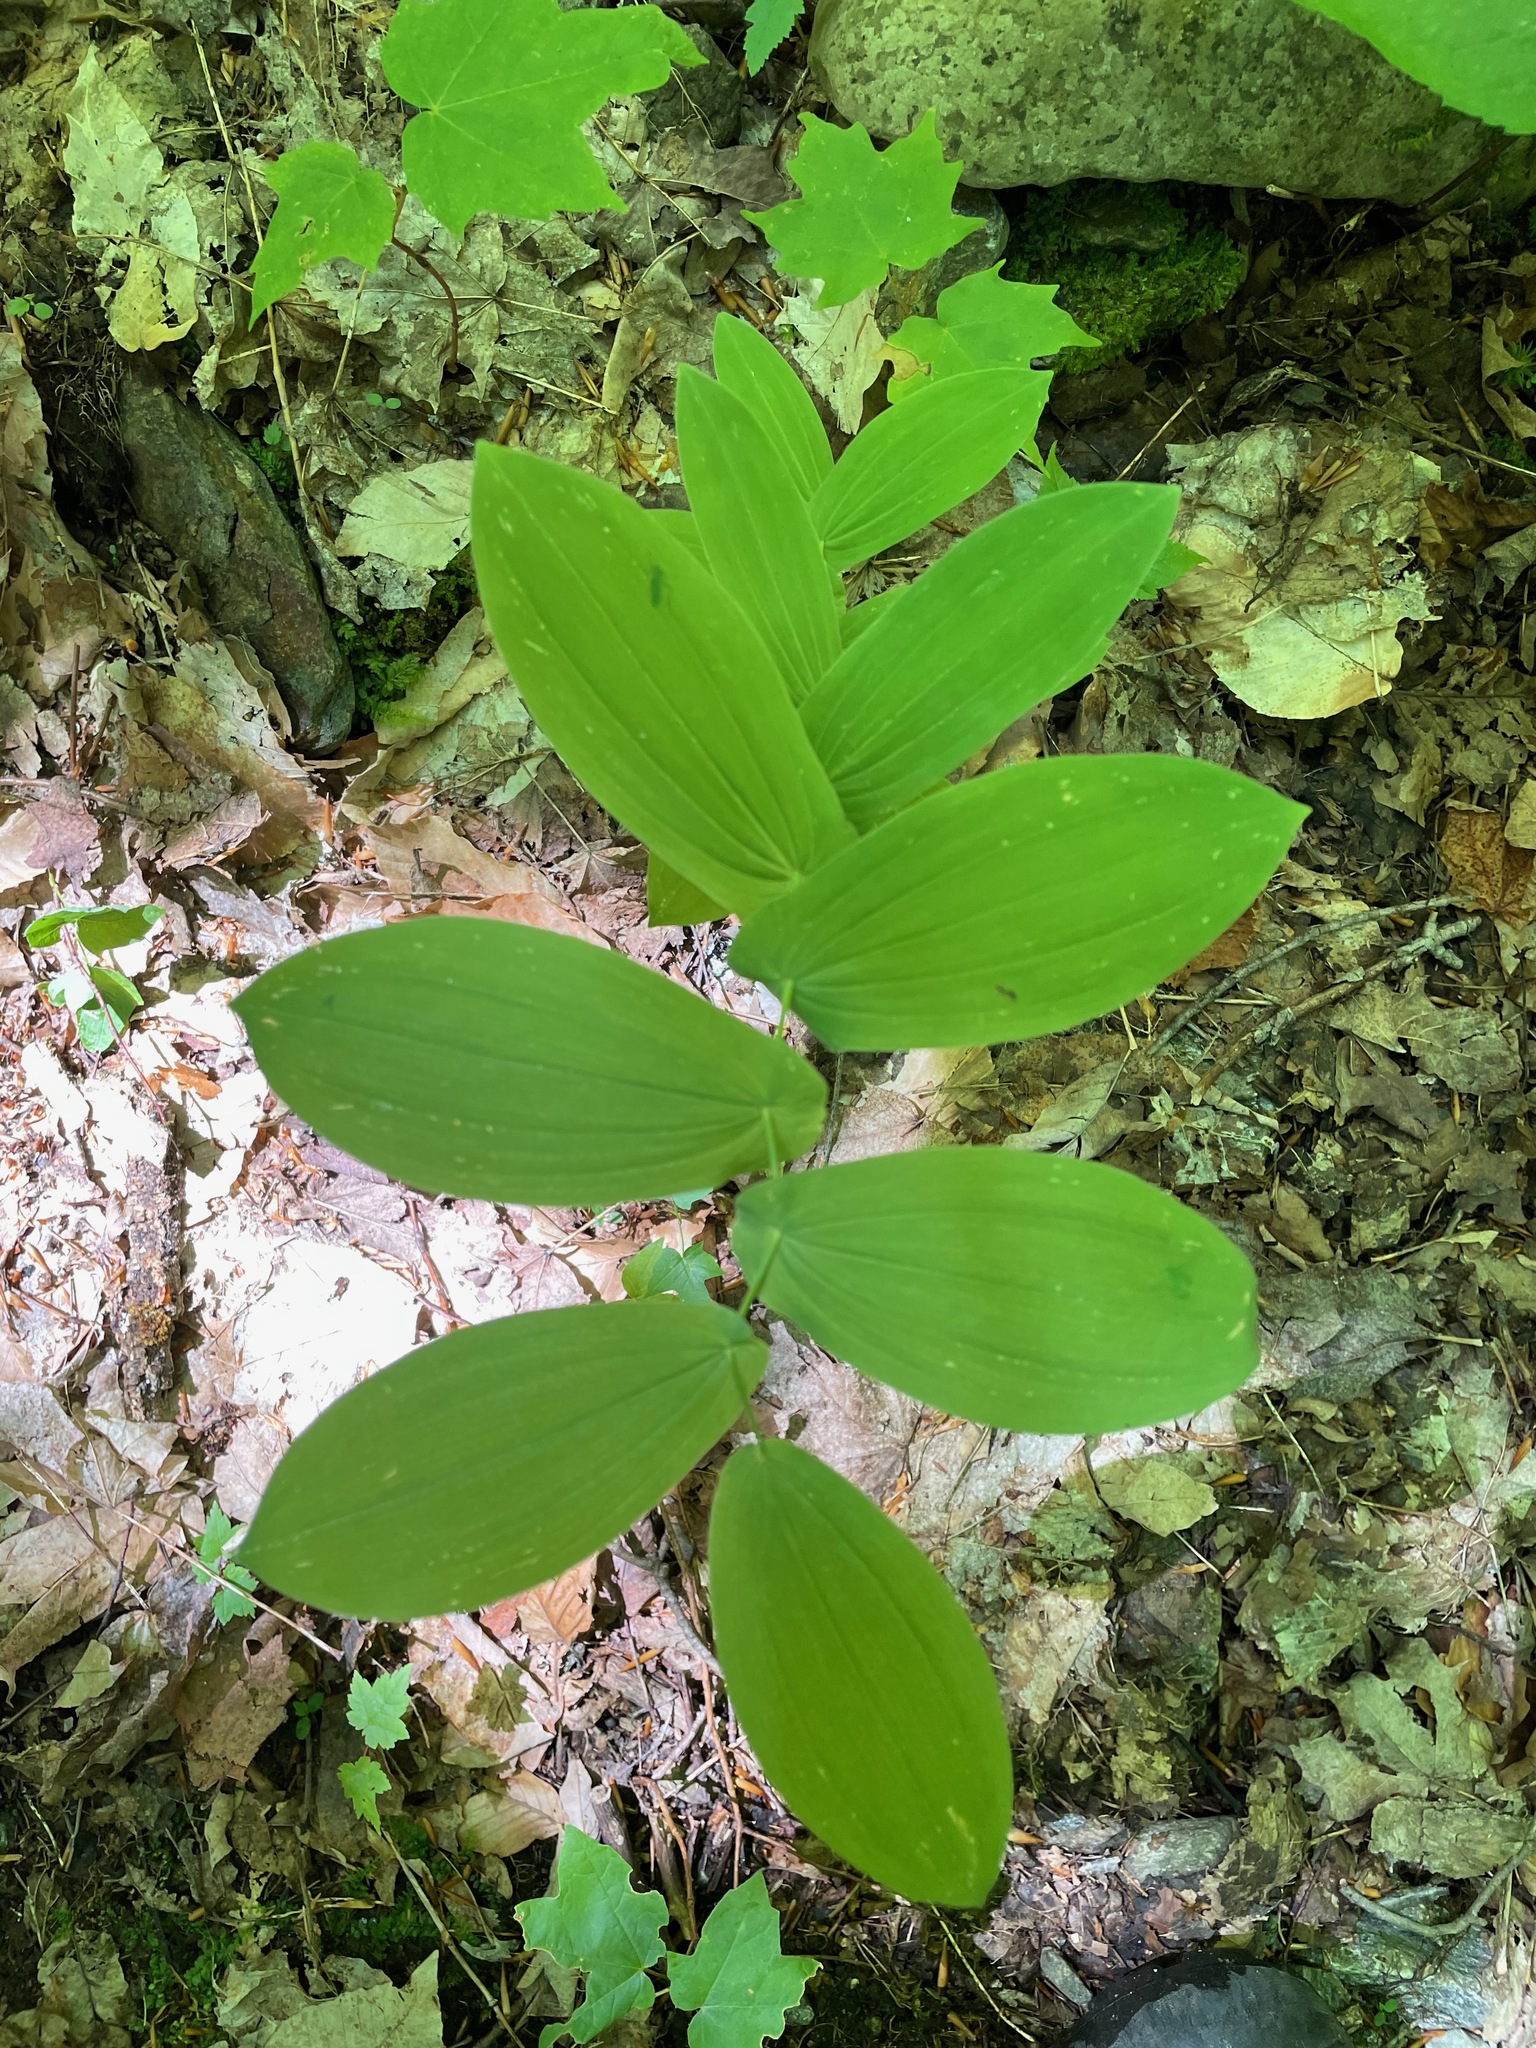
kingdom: Plantae
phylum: Tracheophyta
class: Liliopsida
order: Liliales
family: Colchicaceae
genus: Uvularia
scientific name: Uvularia grandiflora
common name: Bellwort
